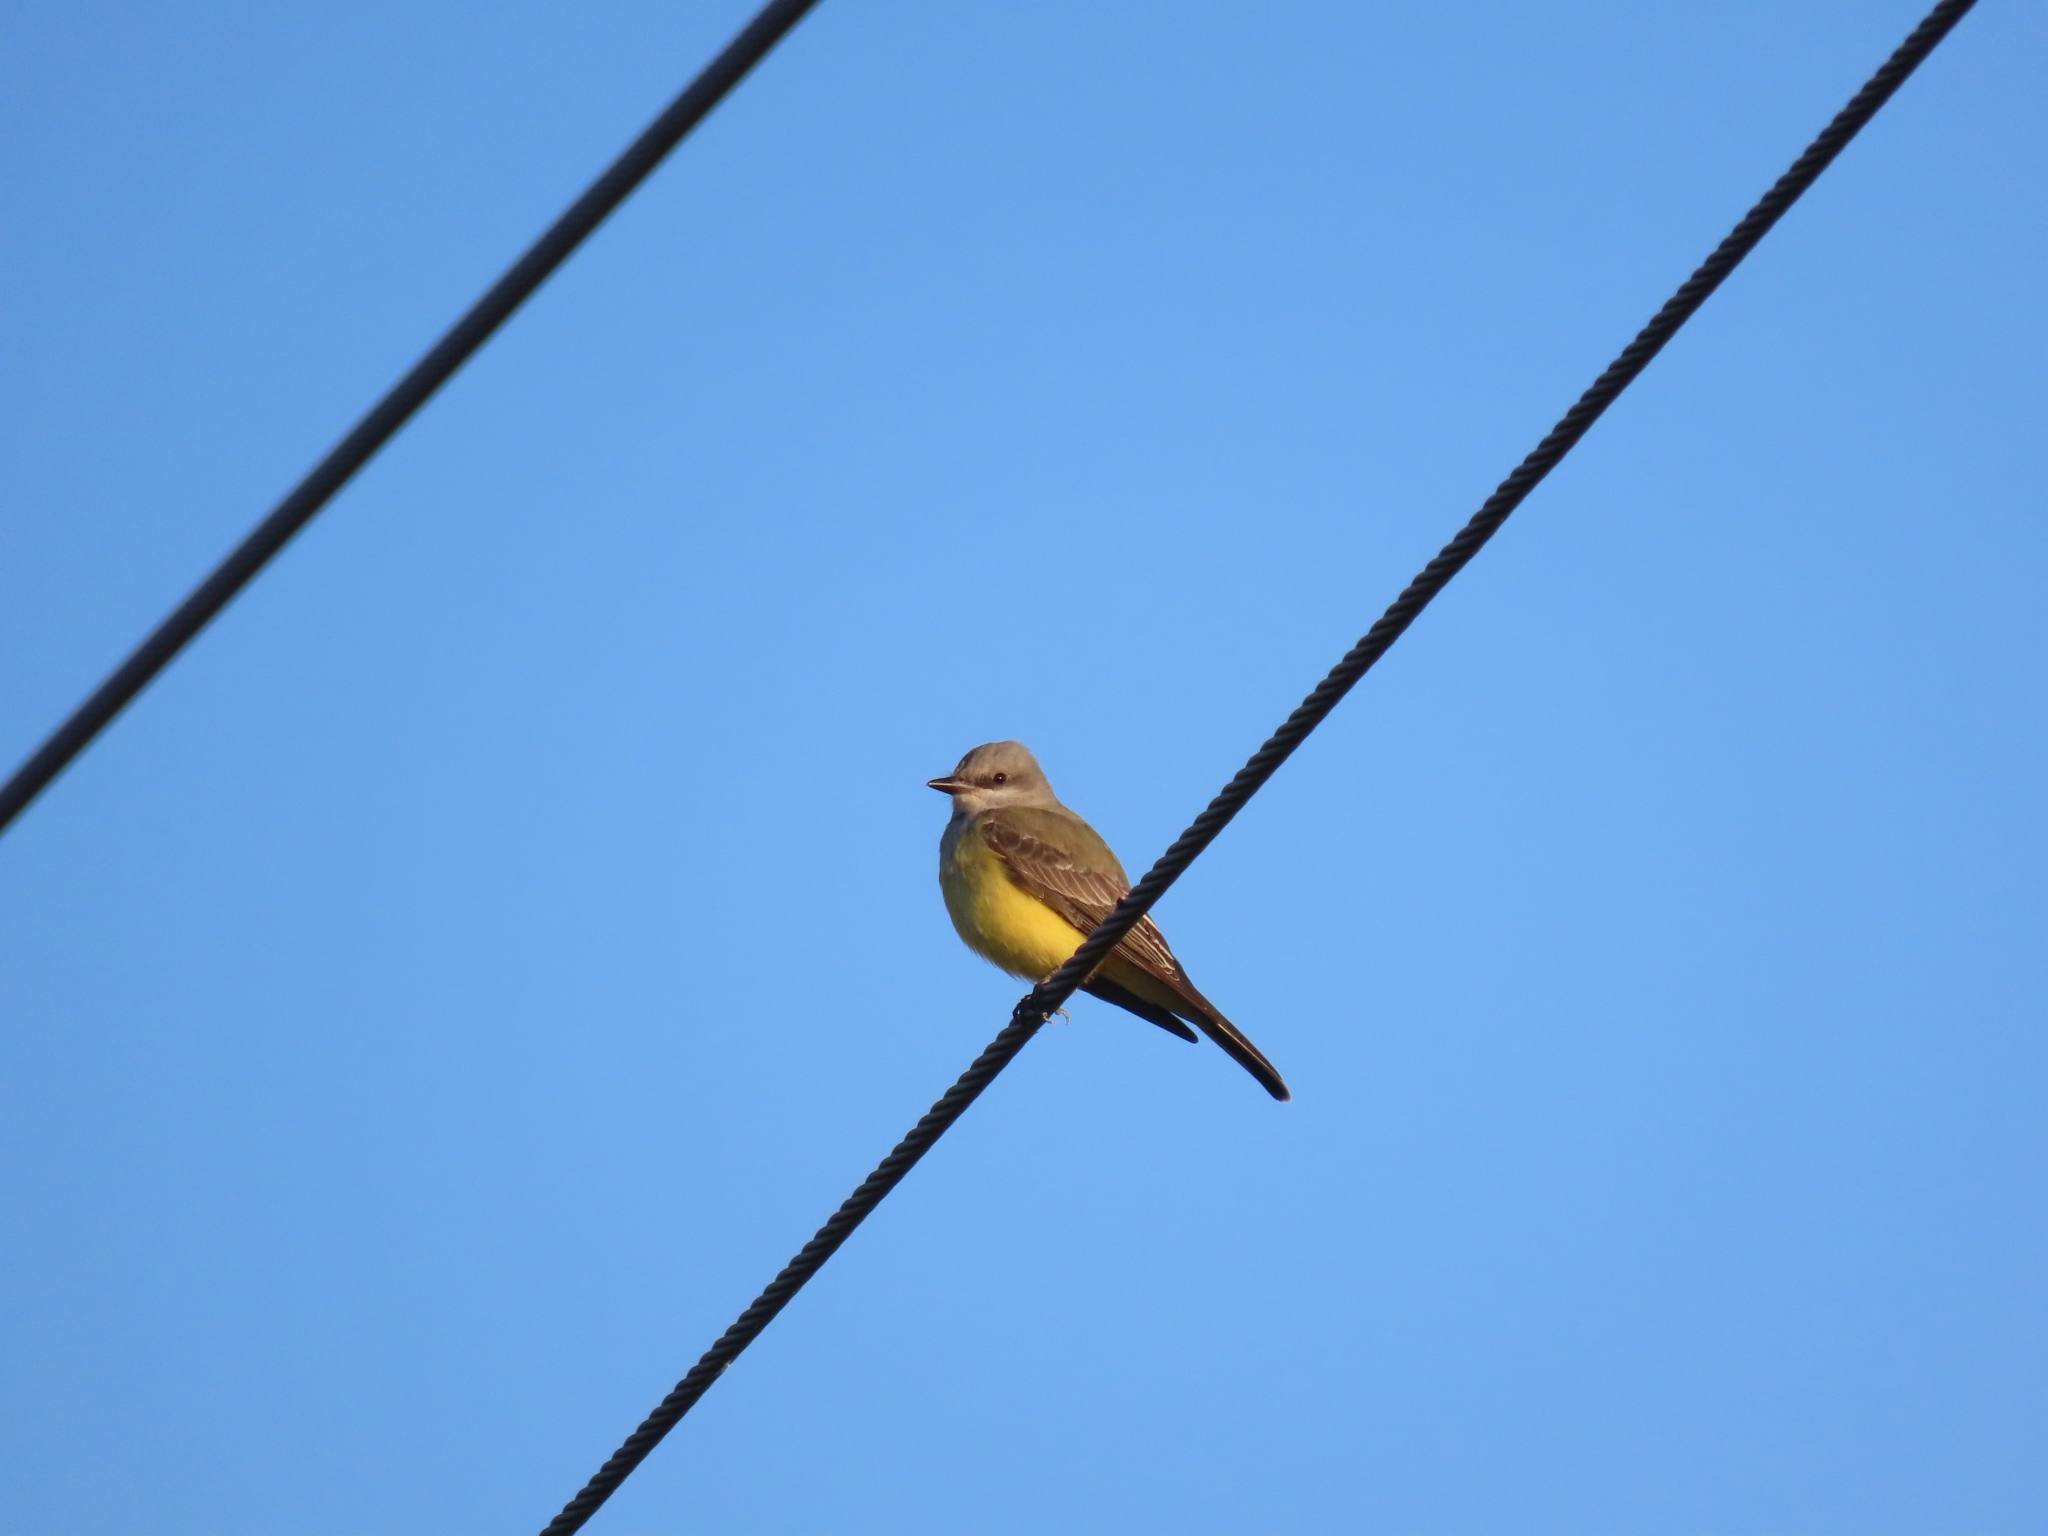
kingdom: Animalia
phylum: Chordata
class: Aves
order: Passeriformes
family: Tyrannidae
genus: Tyrannus
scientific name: Tyrannus verticalis
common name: Western kingbird
